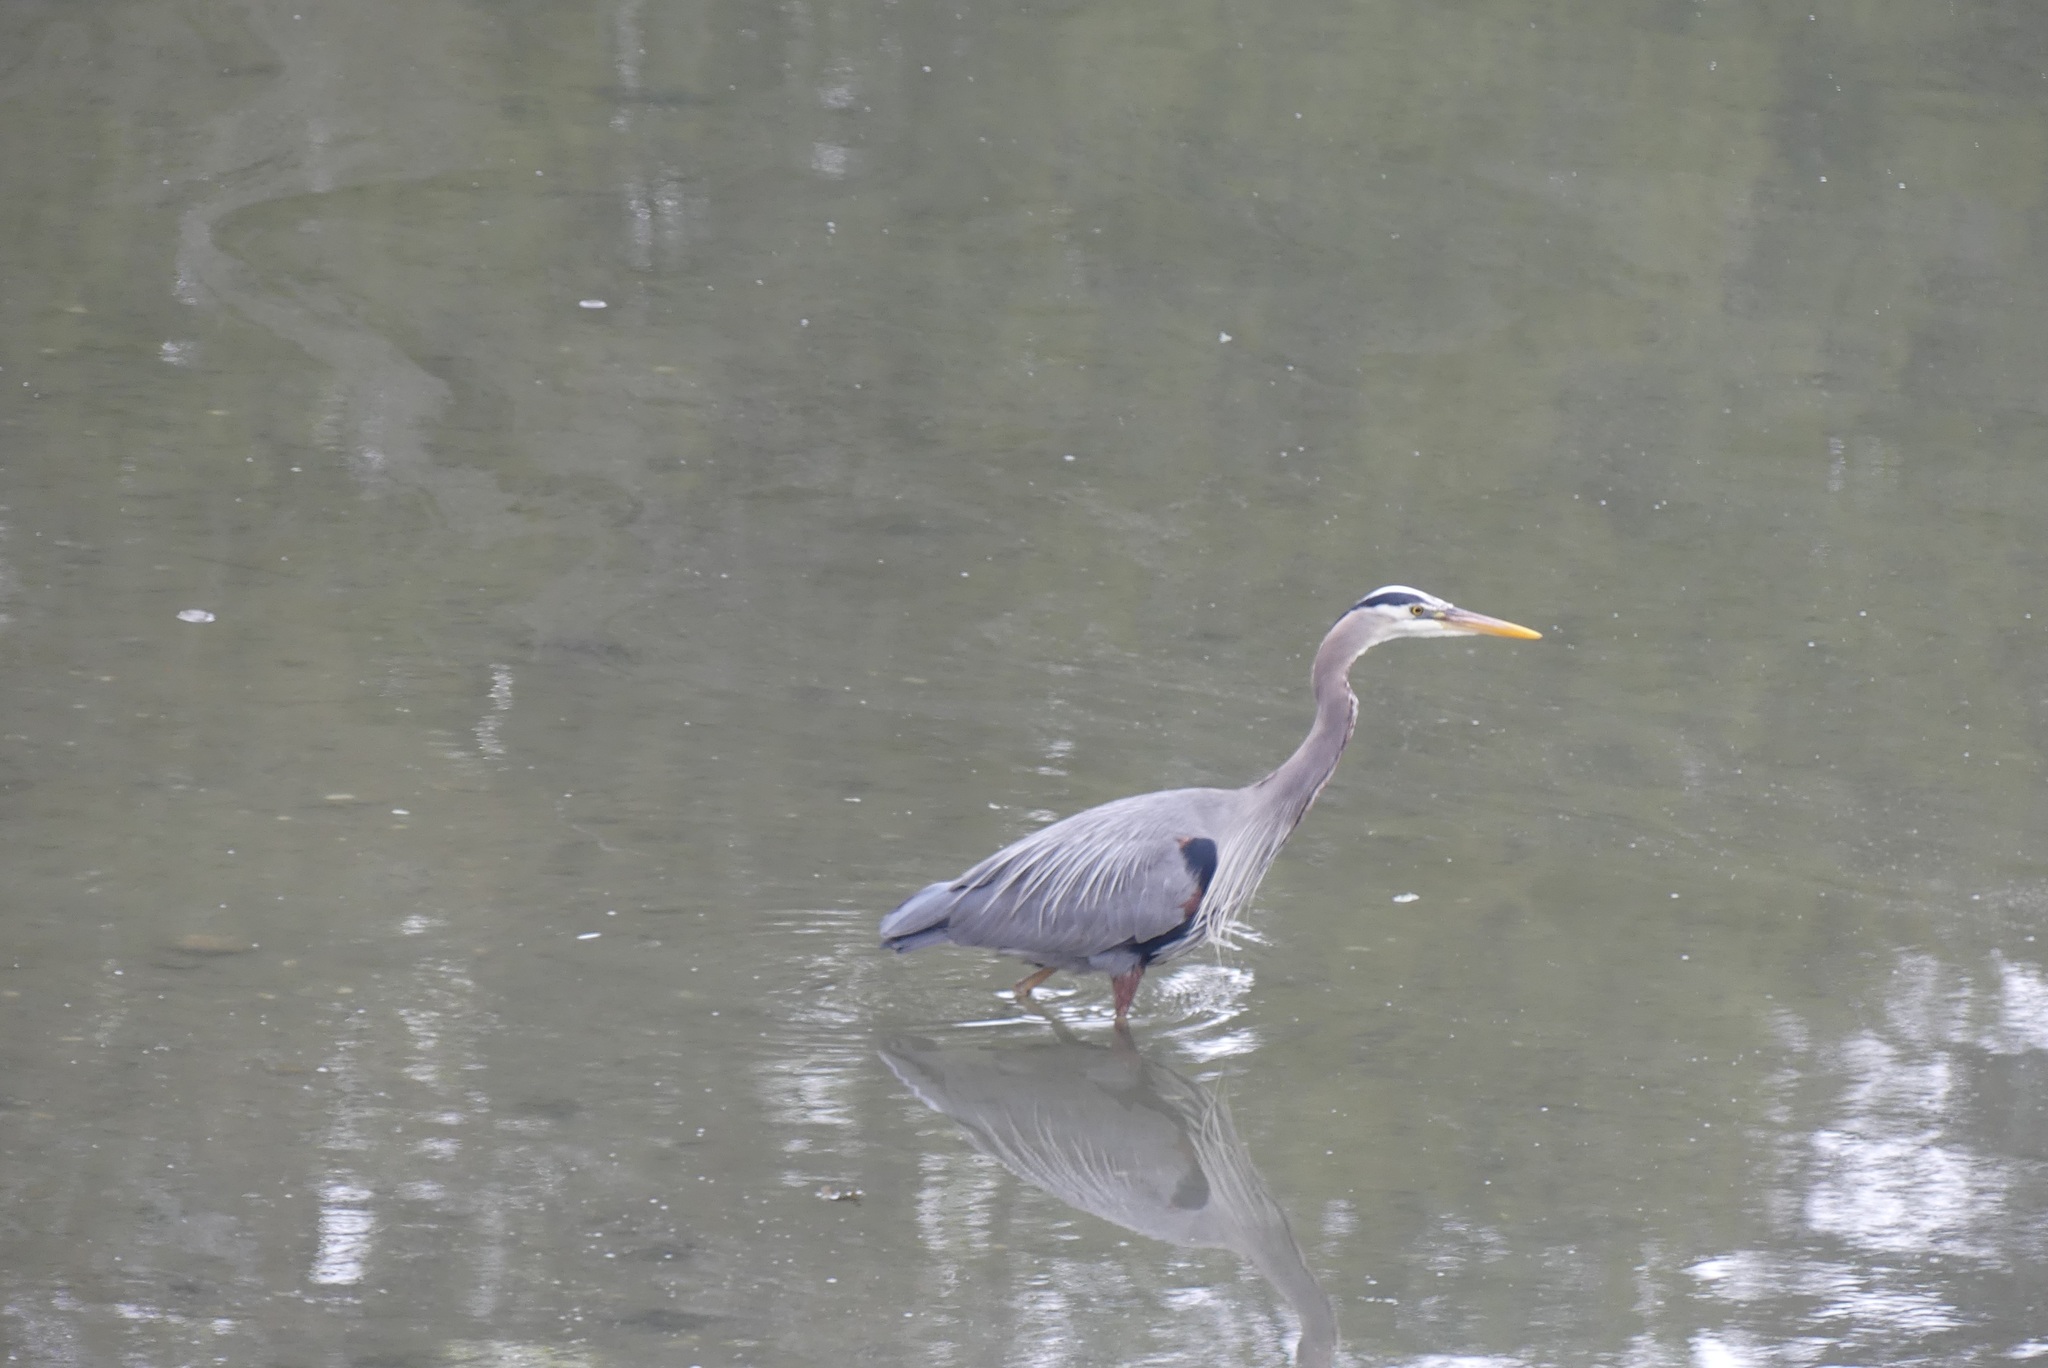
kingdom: Animalia
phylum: Chordata
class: Aves
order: Pelecaniformes
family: Ardeidae
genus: Ardea
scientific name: Ardea herodias
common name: Great blue heron
